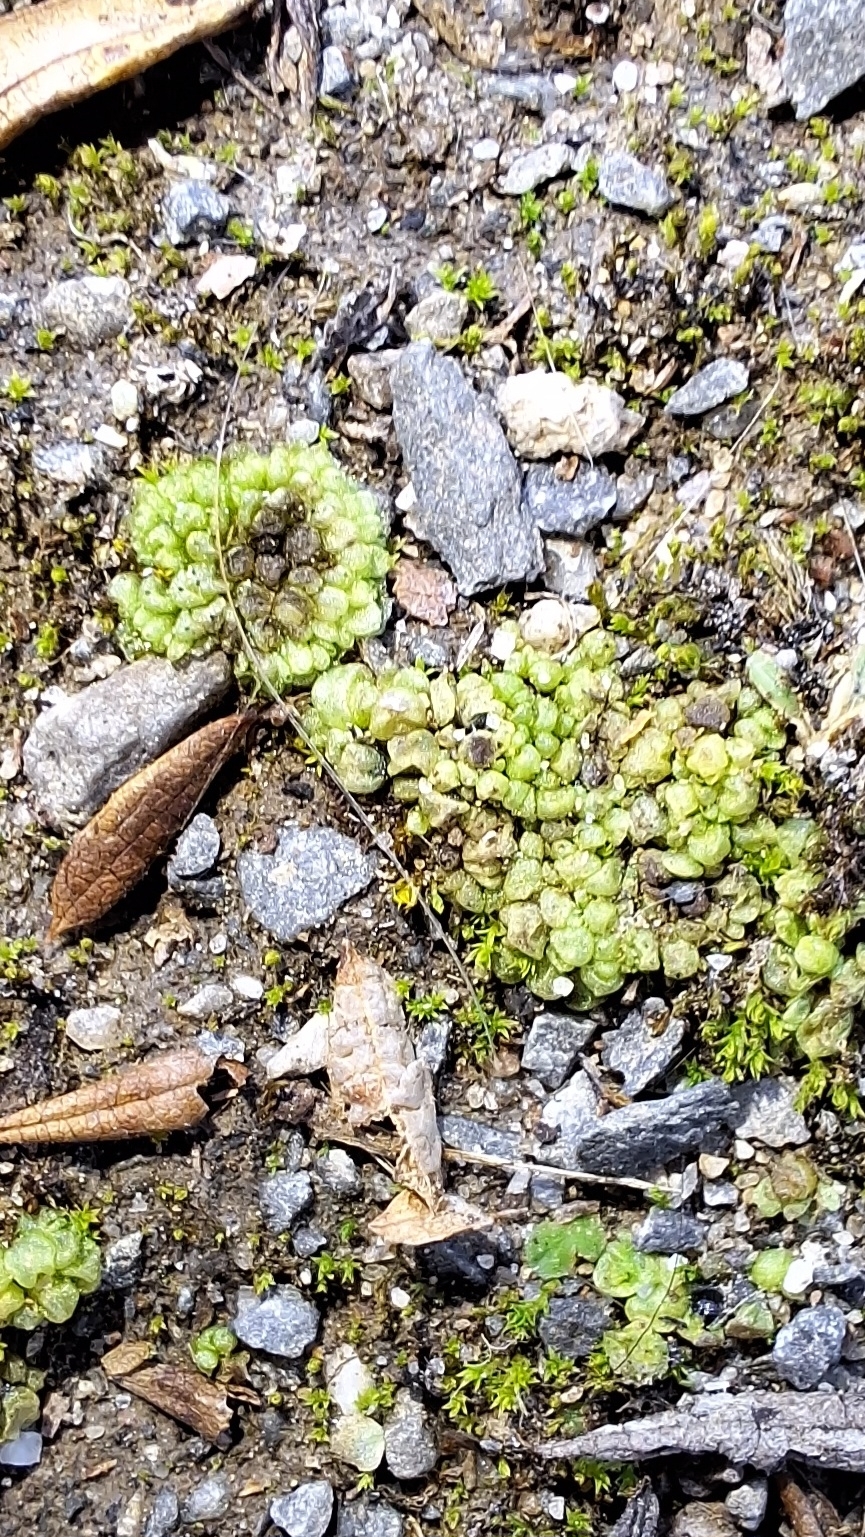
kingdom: Plantae
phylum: Marchantiophyta
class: Marchantiopsida
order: Sphaerocarpales
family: Sphaerocarpaceae
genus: Sphaerocarpos
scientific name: Sphaerocarpos texanus
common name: Texas balloonwort
